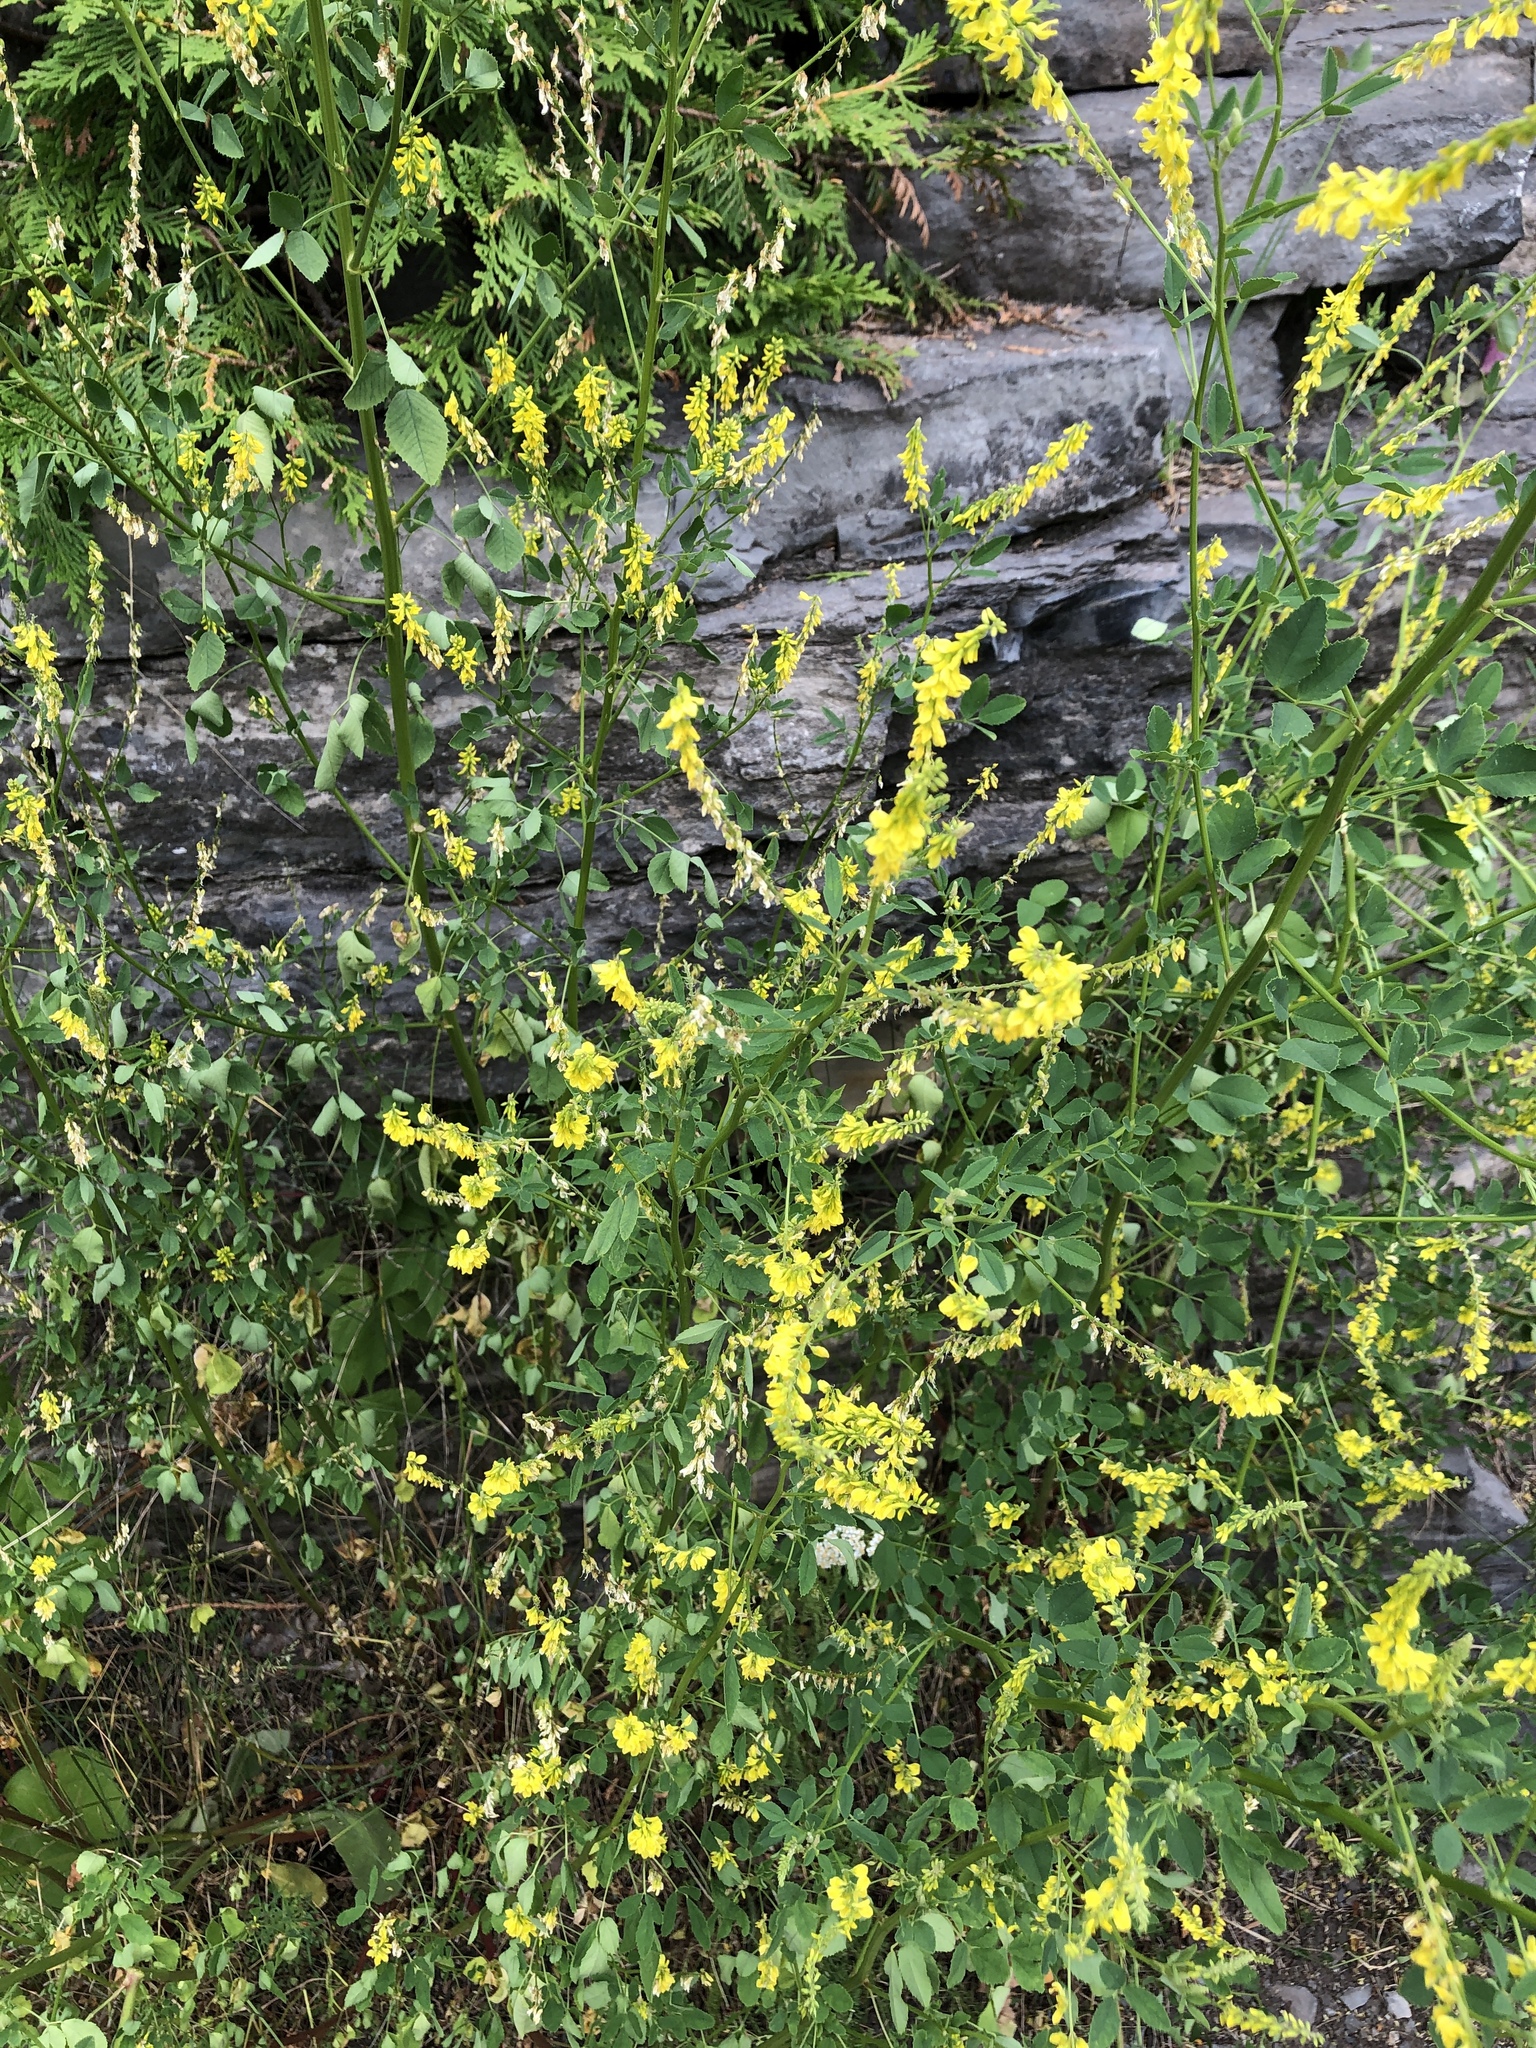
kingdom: Plantae
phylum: Tracheophyta
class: Magnoliopsida
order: Fabales
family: Fabaceae
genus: Melilotus
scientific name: Melilotus officinalis
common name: Sweetclover
